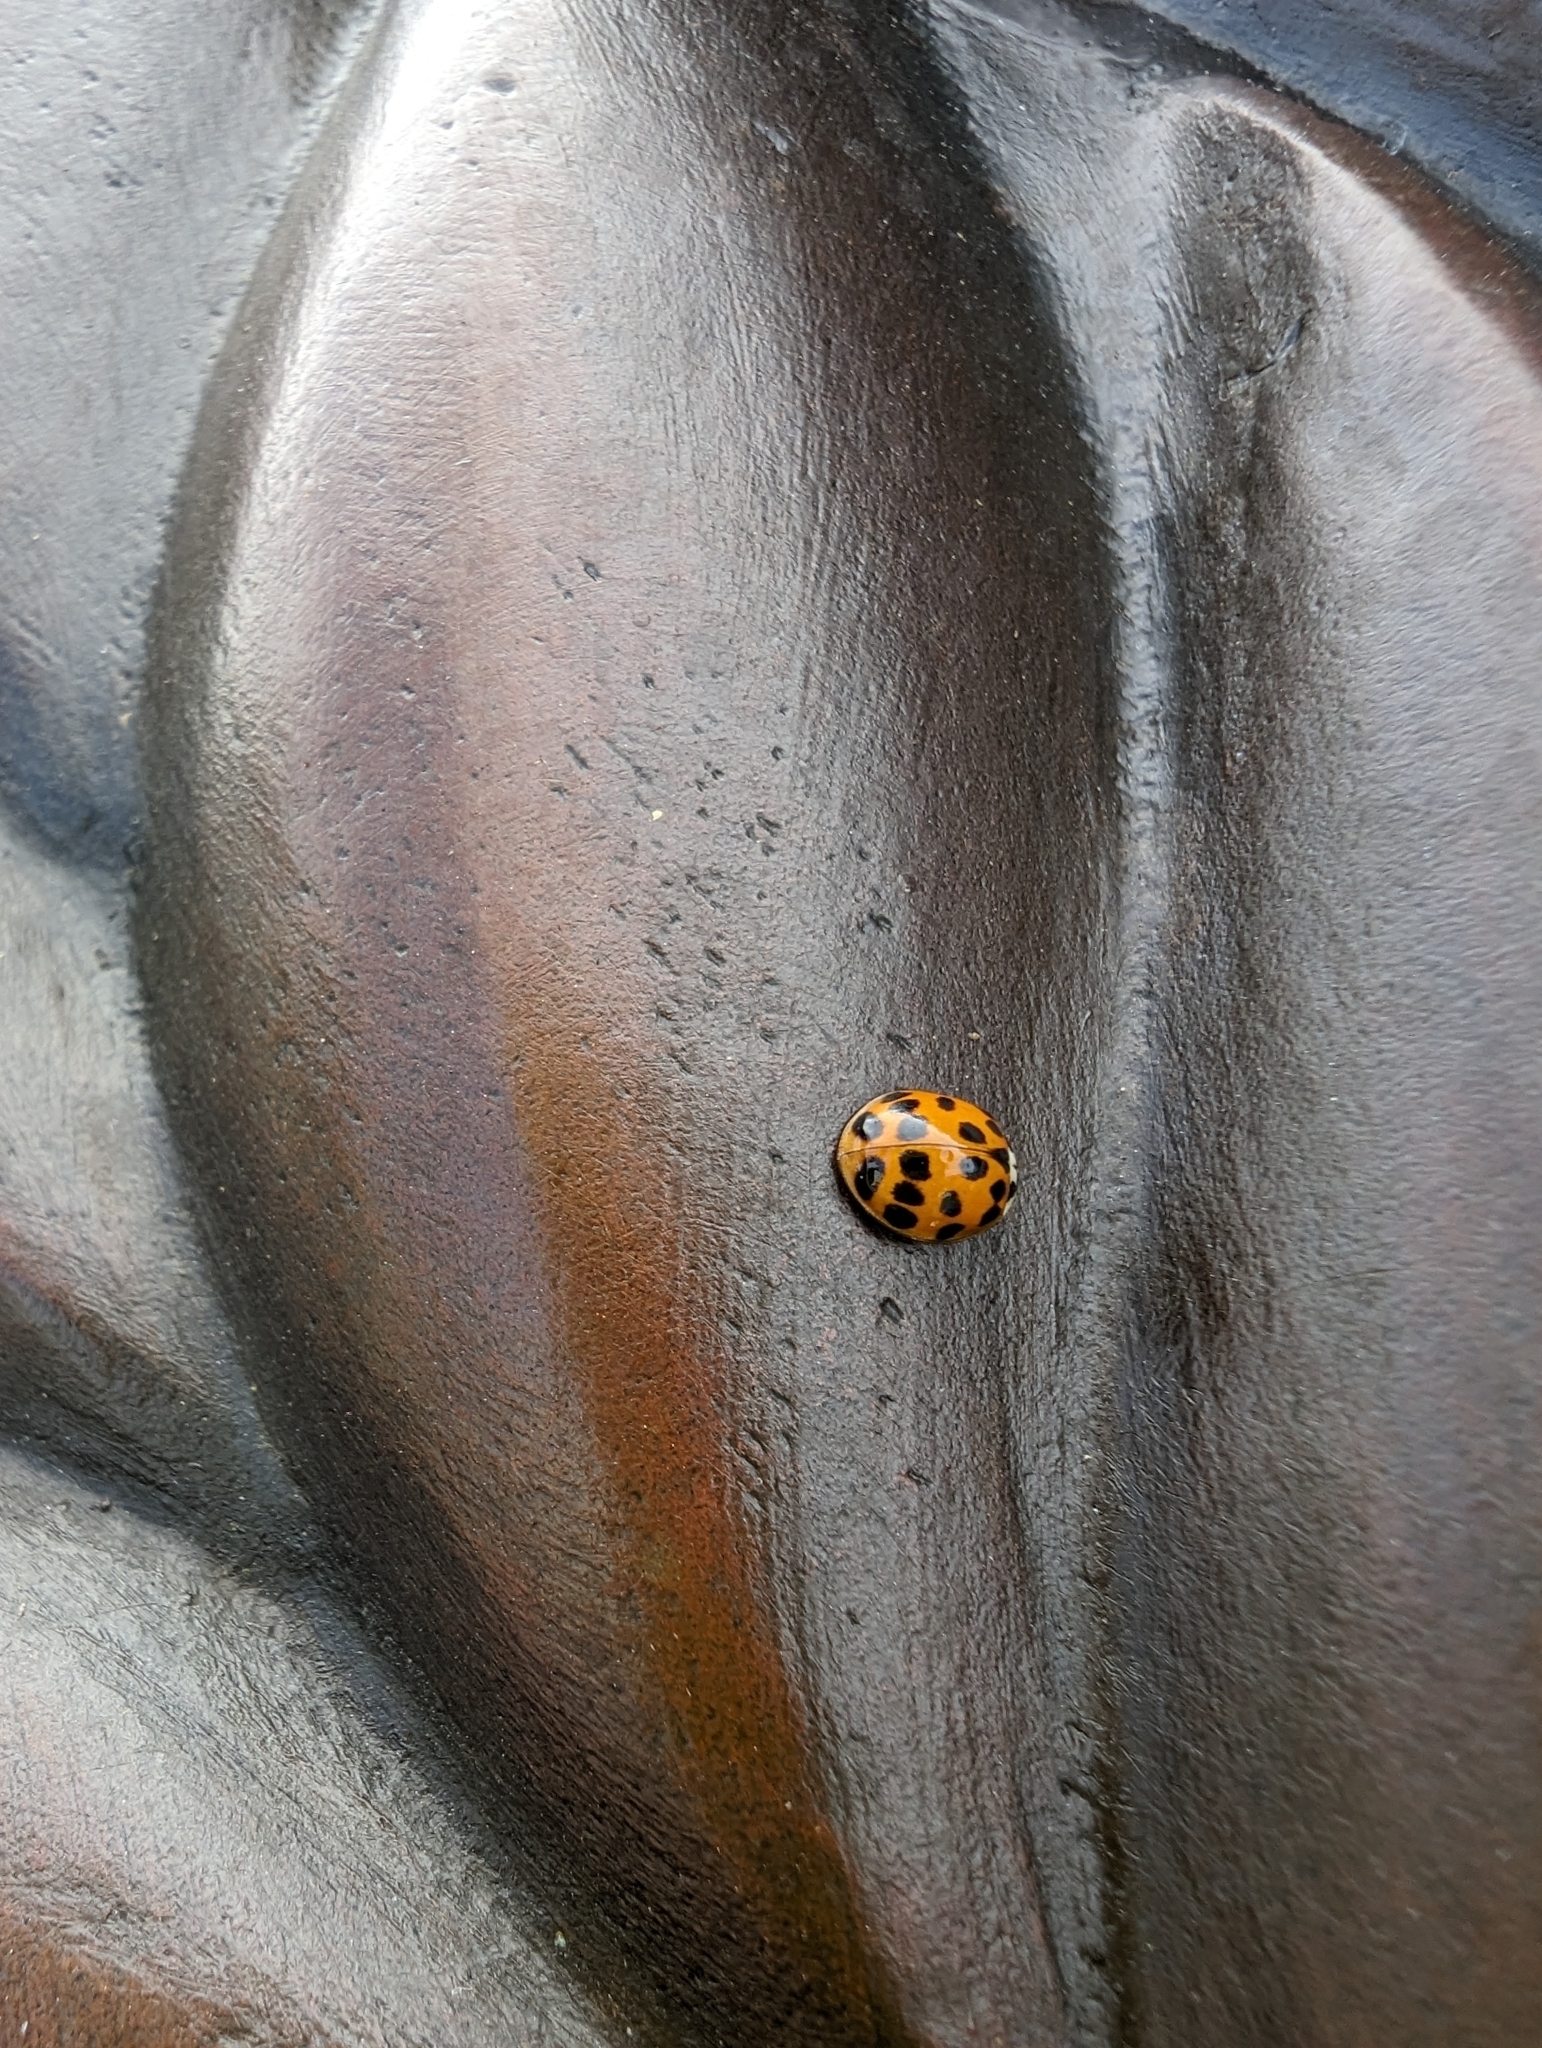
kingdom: Animalia
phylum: Arthropoda
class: Insecta
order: Coleoptera
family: Coccinellidae
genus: Harmonia
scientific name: Harmonia axyridis
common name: Harlequin ladybird
